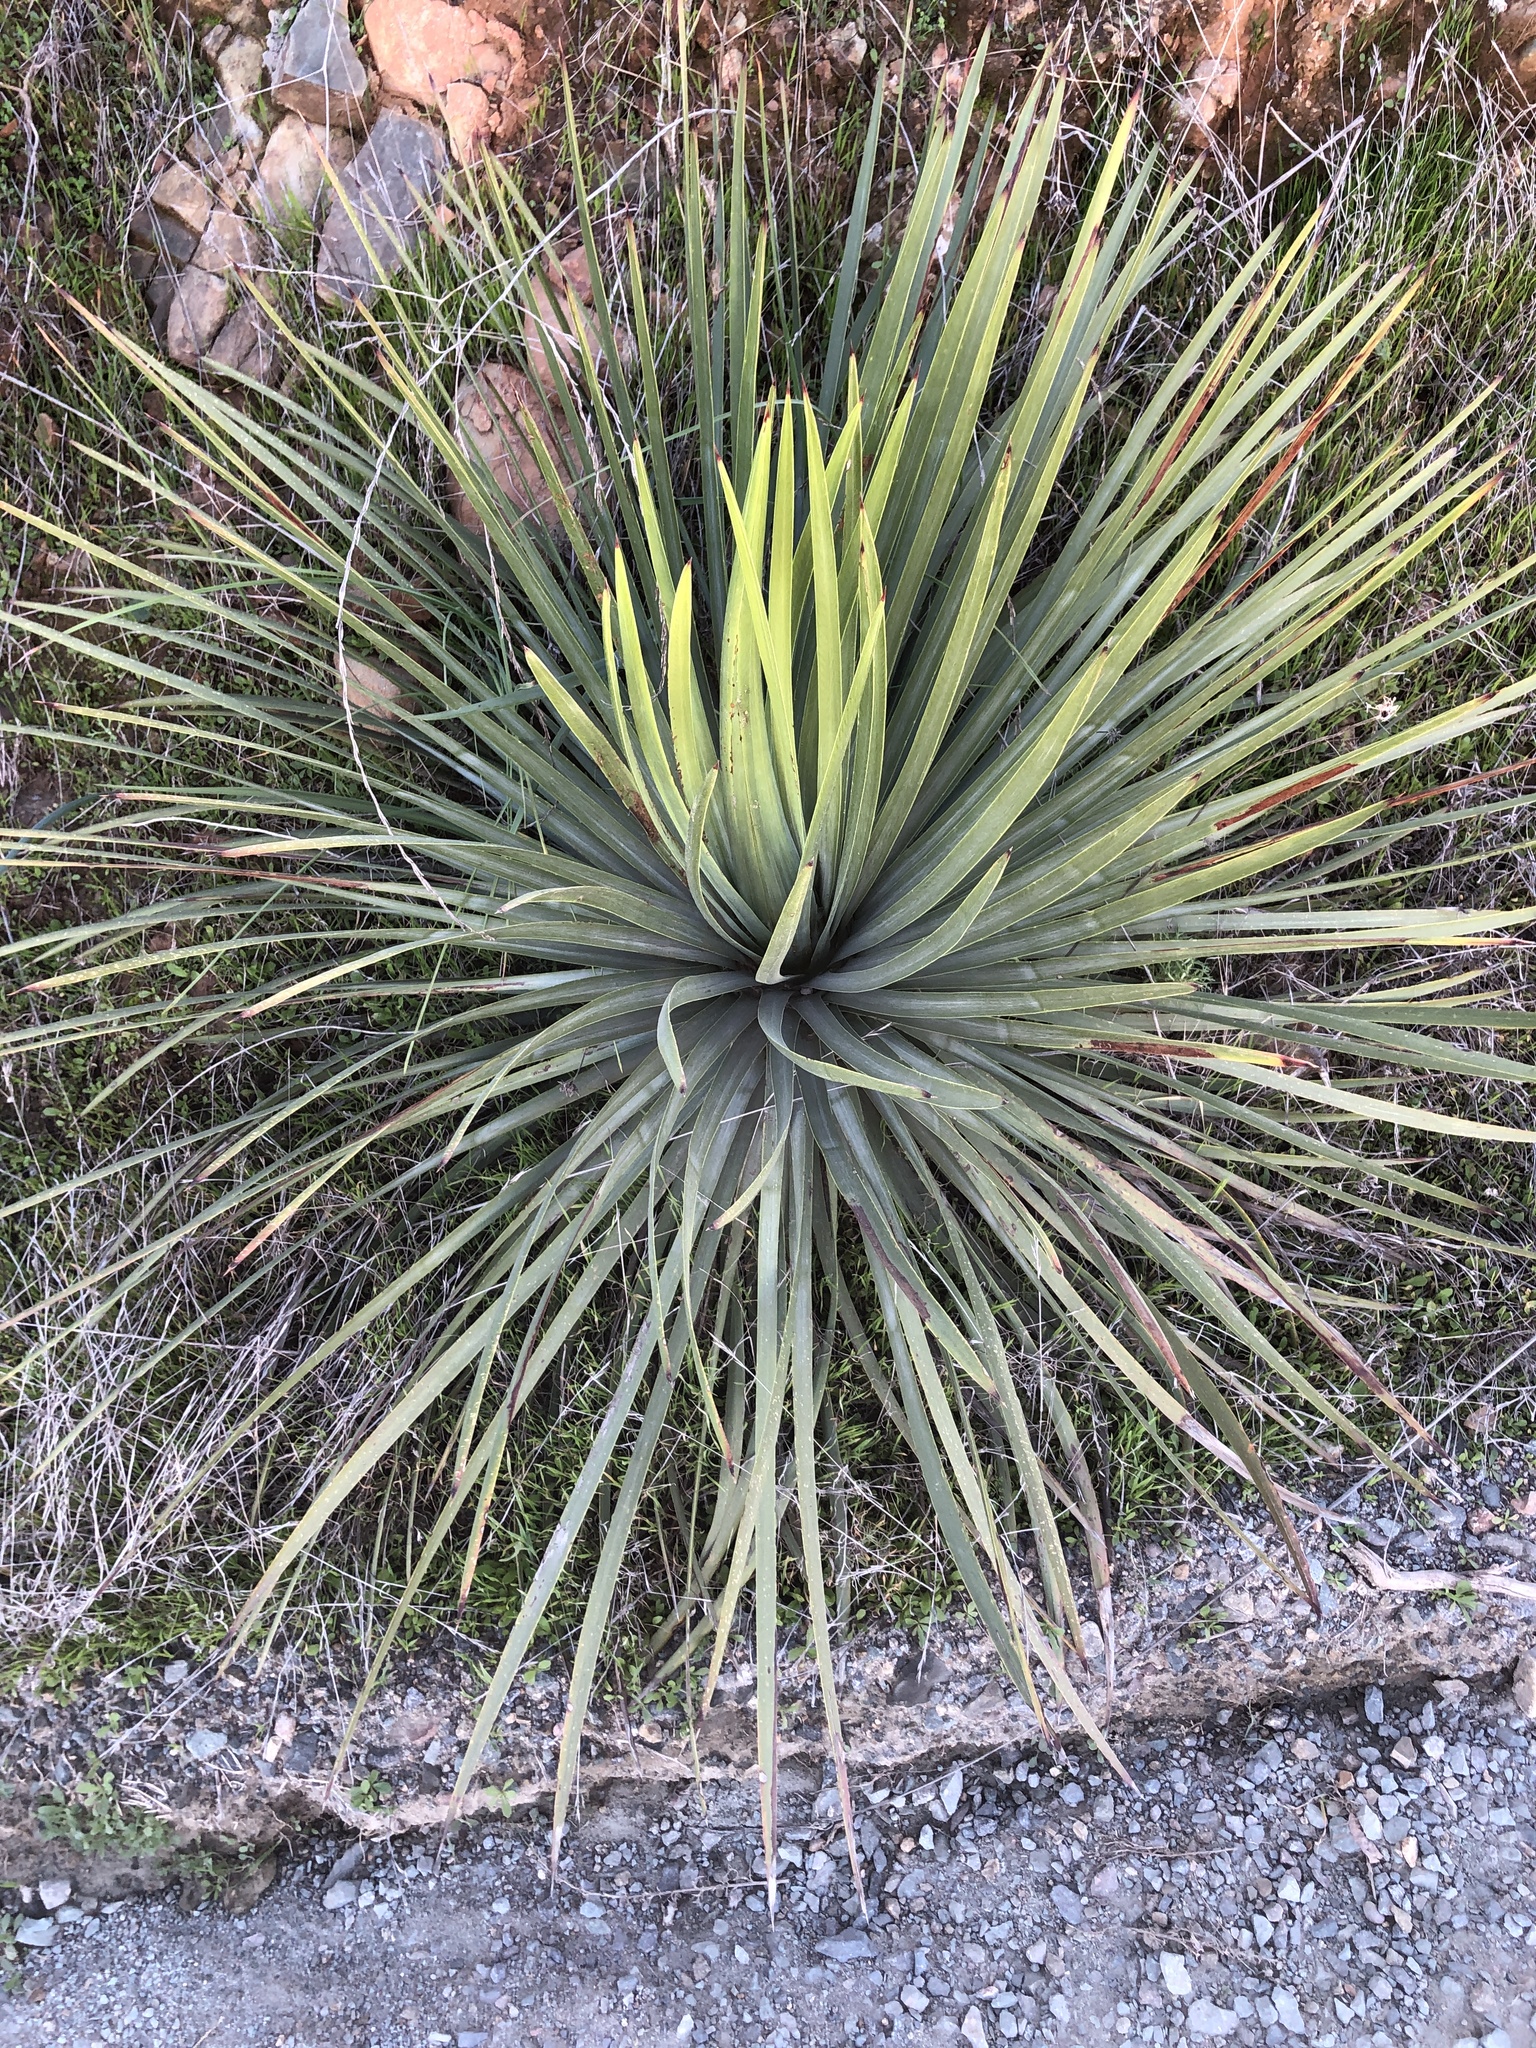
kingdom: Plantae
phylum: Tracheophyta
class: Liliopsida
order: Asparagales
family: Asparagaceae
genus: Hesperoyucca
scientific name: Hesperoyucca whipplei
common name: Our lord's-candle
